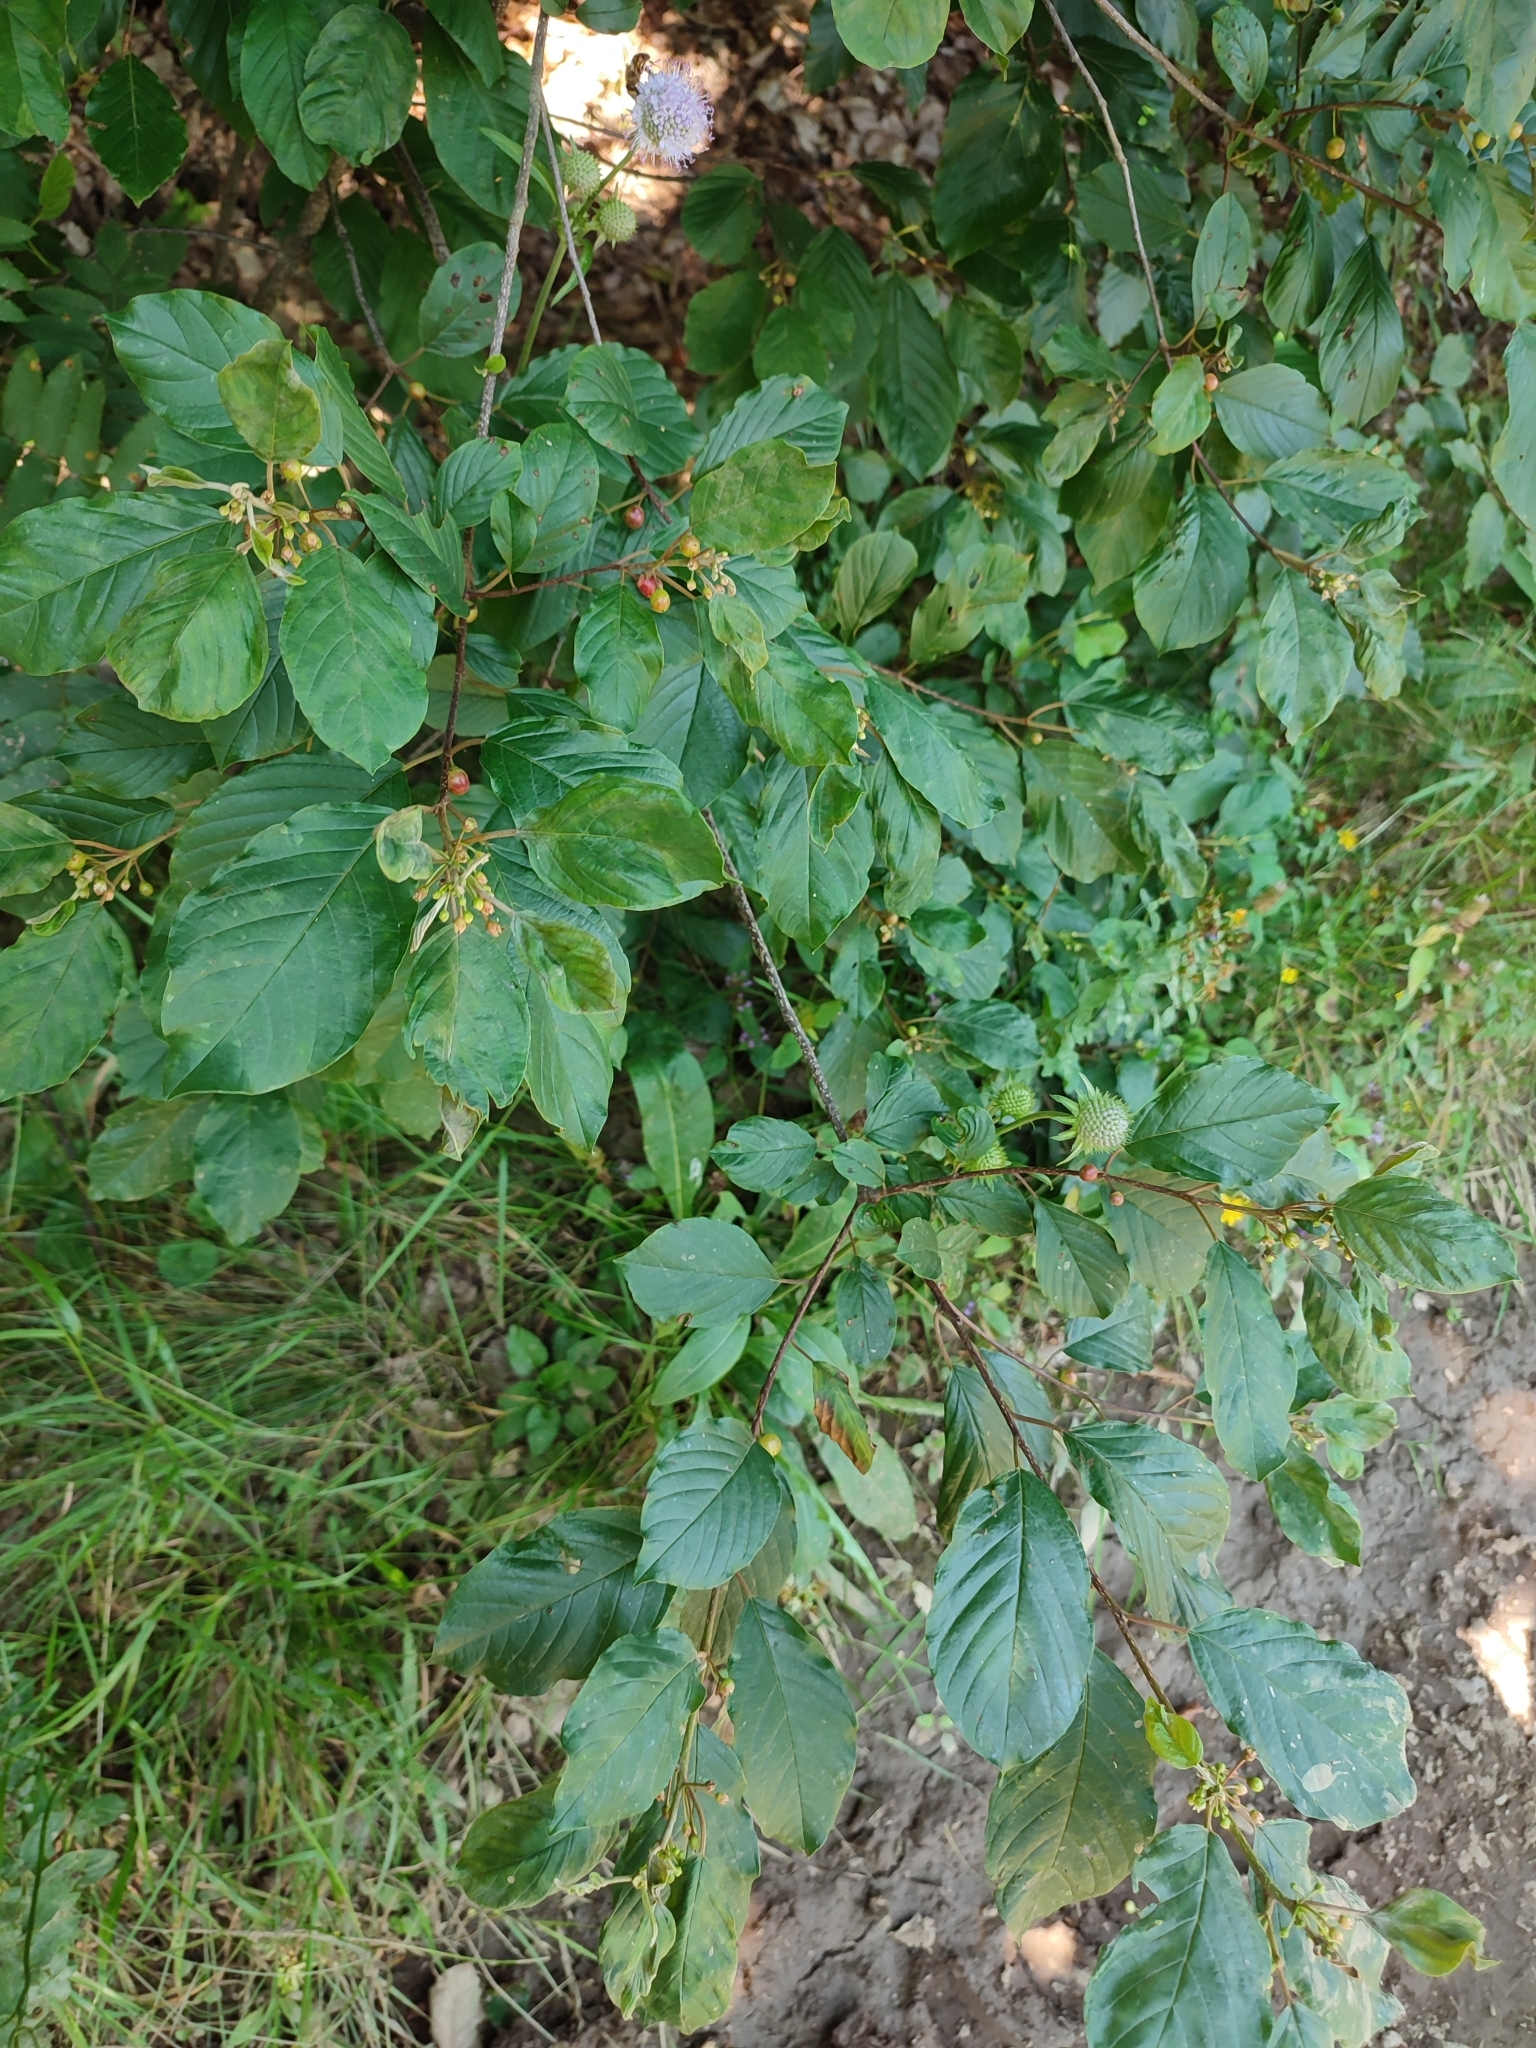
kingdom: Plantae
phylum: Tracheophyta
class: Magnoliopsida
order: Rosales
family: Rhamnaceae
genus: Frangula
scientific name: Frangula alnus
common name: Alder buckthorn
